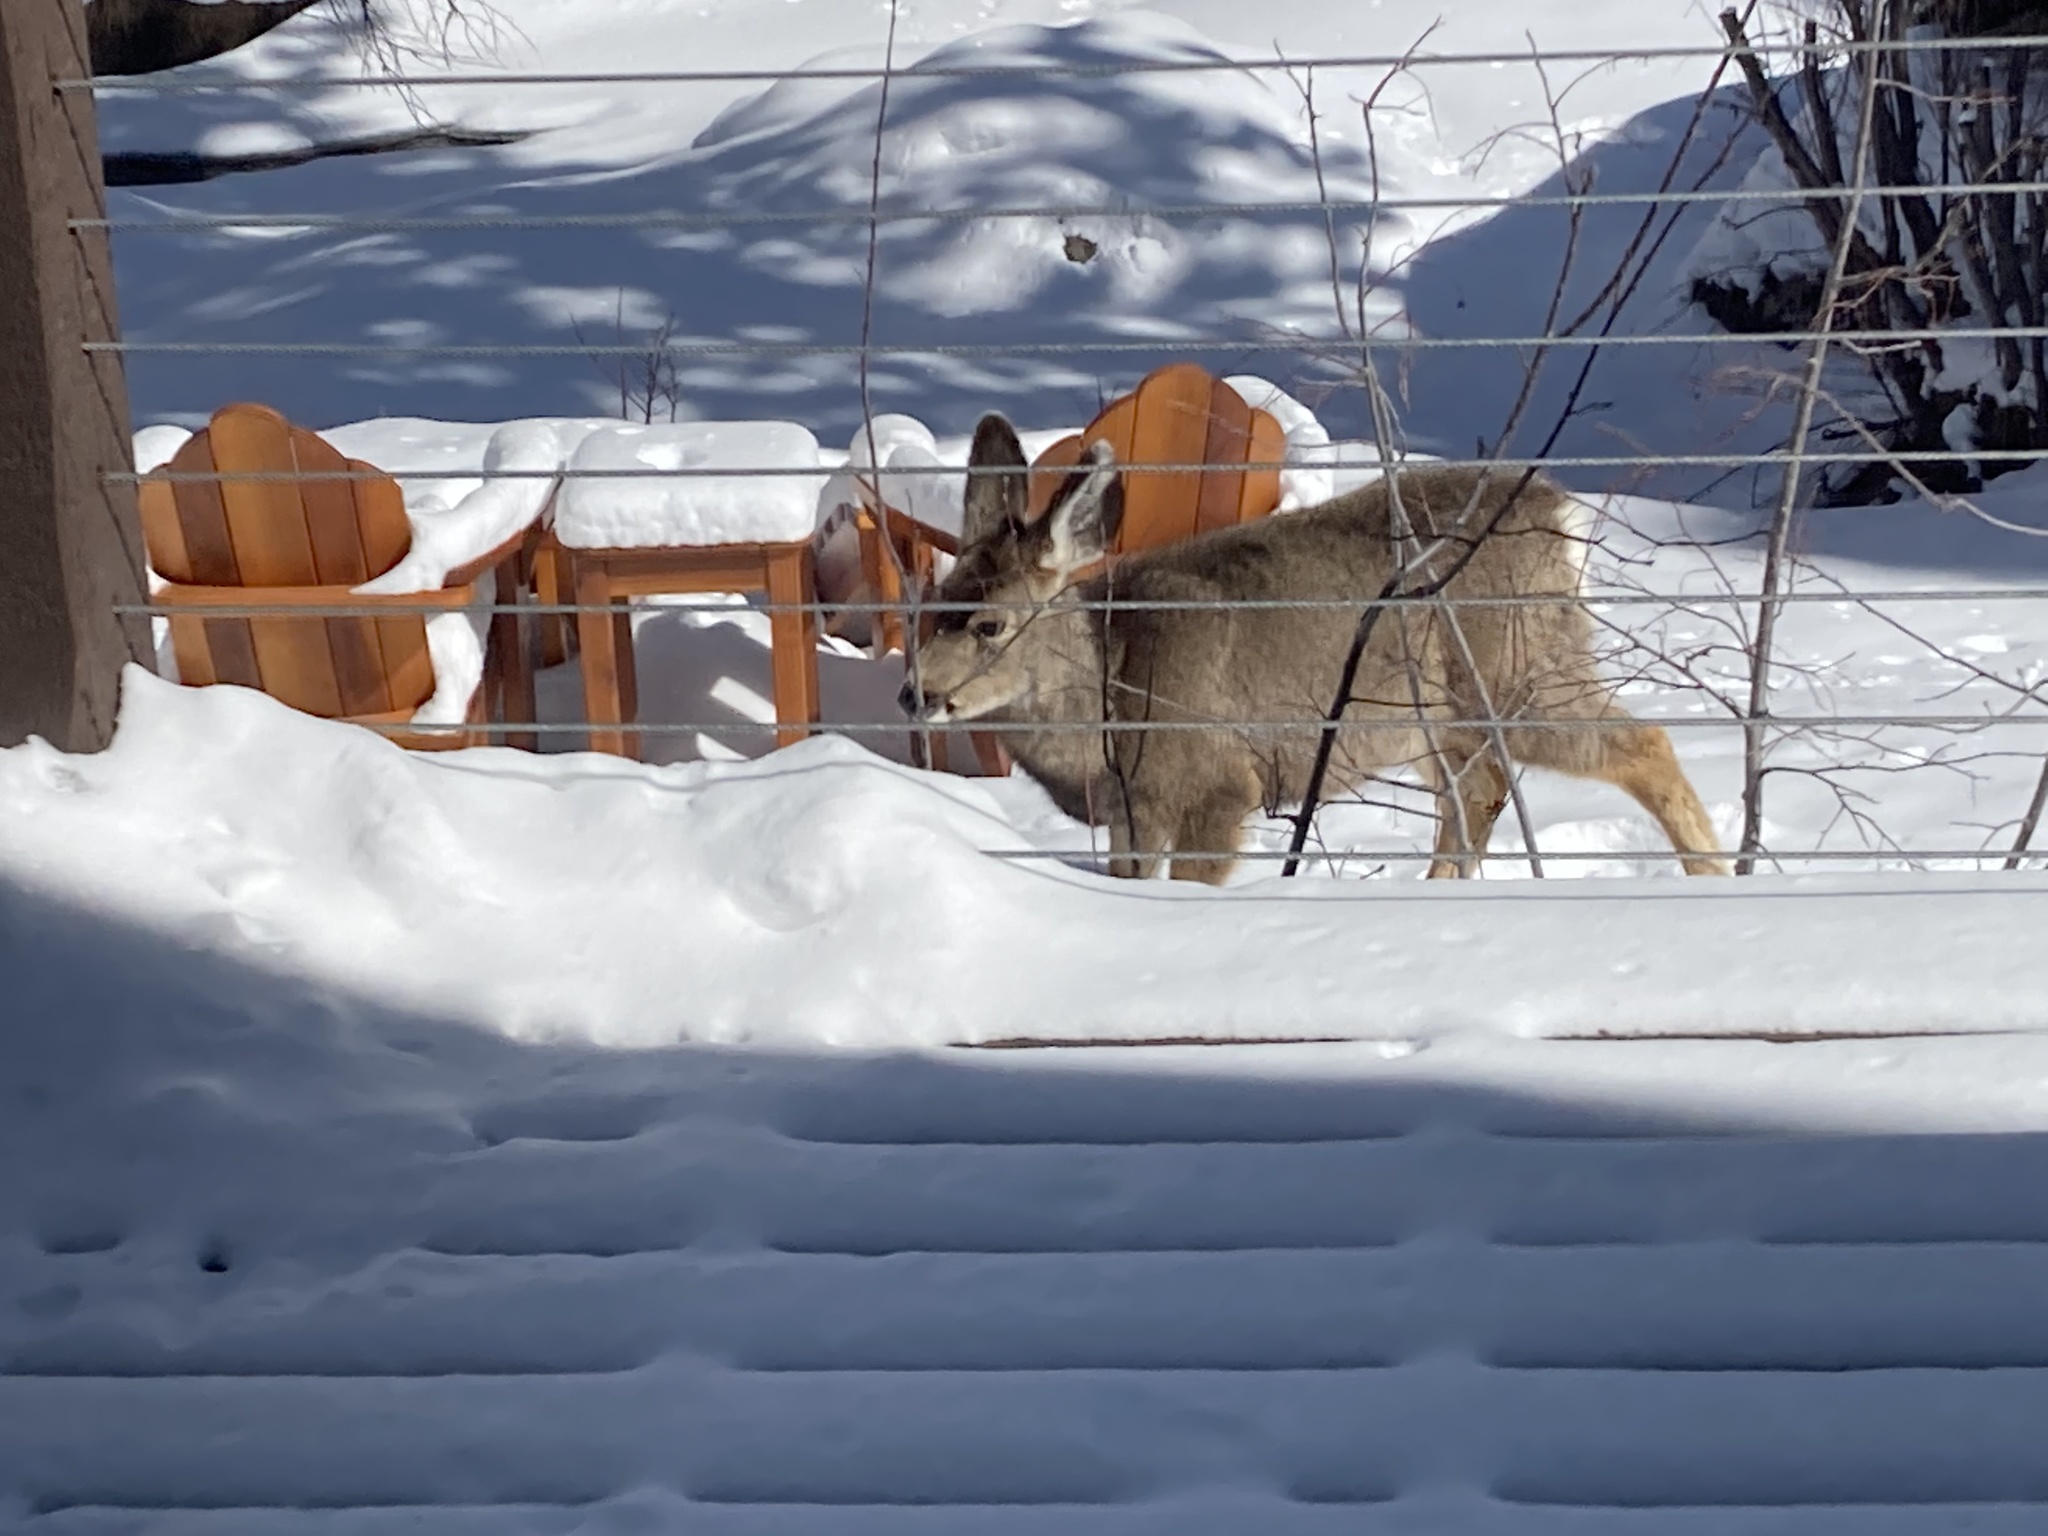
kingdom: Animalia
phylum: Chordata
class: Mammalia
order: Artiodactyla
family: Cervidae
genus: Odocoileus
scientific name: Odocoileus hemionus
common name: Mule deer
